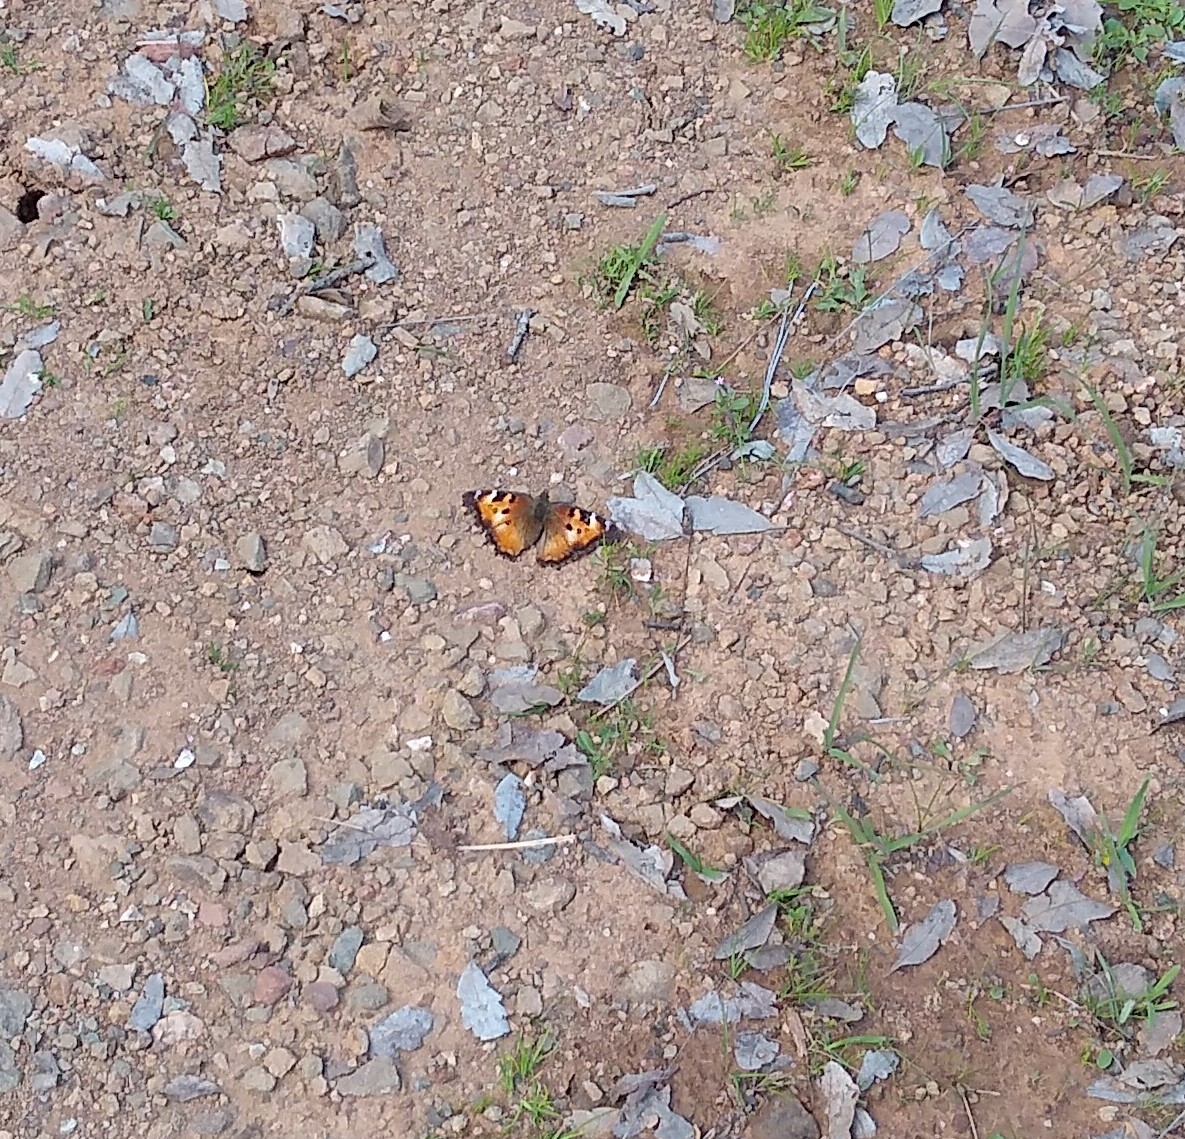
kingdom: Animalia
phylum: Arthropoda
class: Insecta
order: Lepidoptera
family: Nymphalidae
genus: Nymphalis
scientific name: Nymphalis californica
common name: California tortoiseshell
